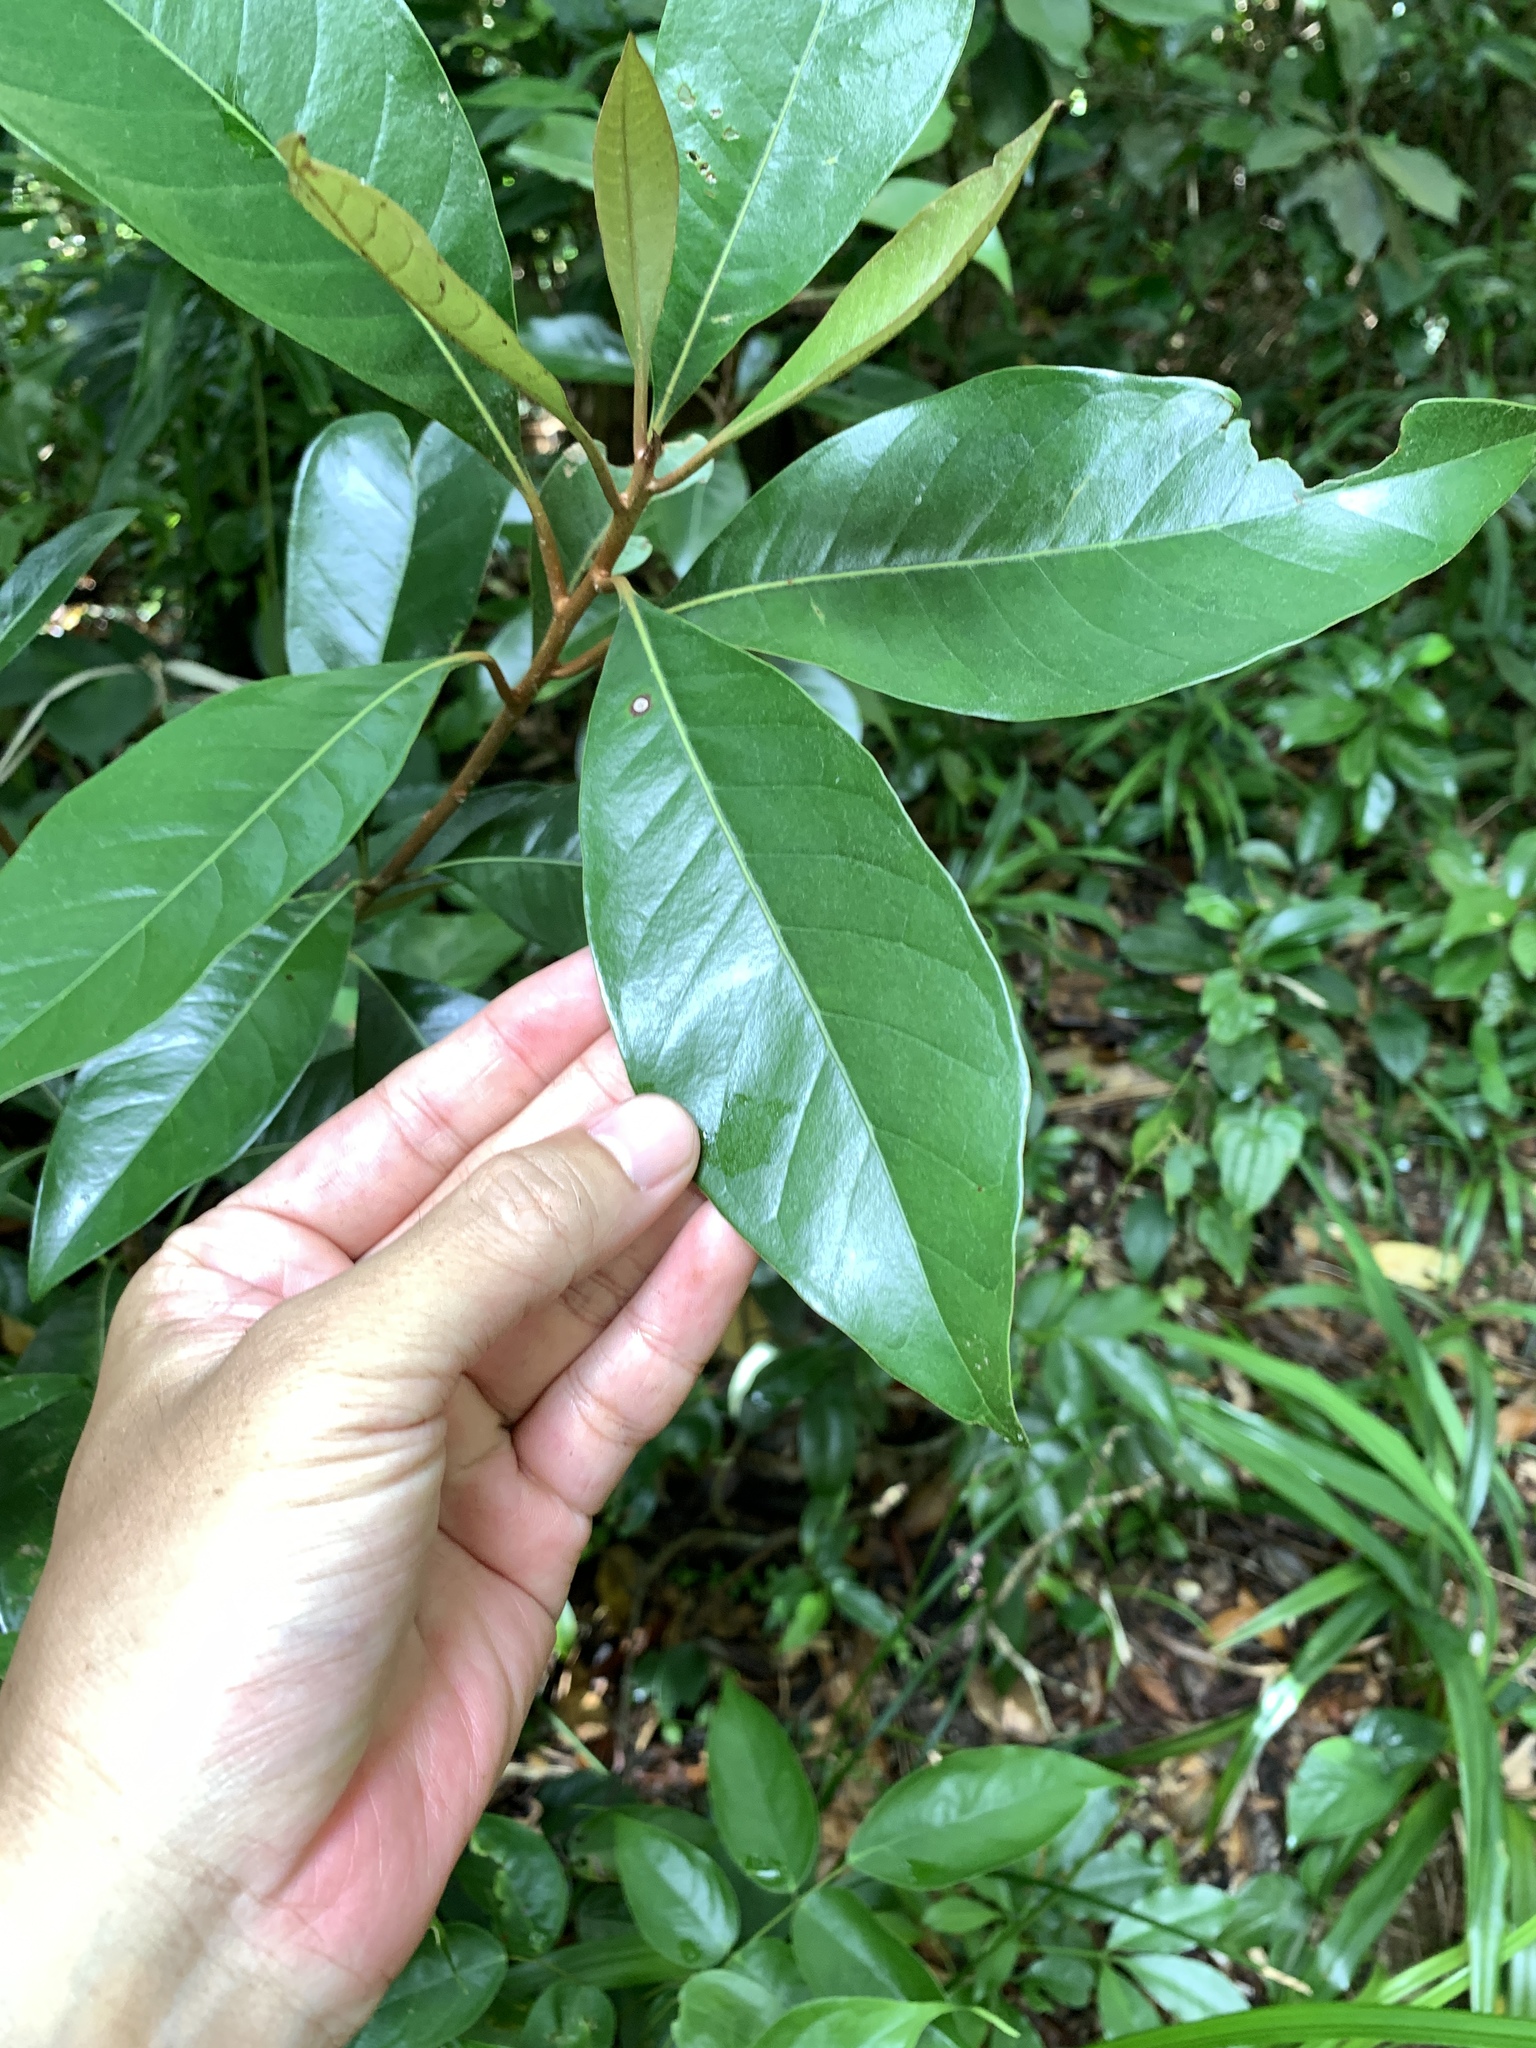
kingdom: Plantae
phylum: Tracheophyta
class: Magnoliopsida
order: Ericales
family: Sapotaceae
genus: Planchonella
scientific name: Planchonella obovata
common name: Black-ash
